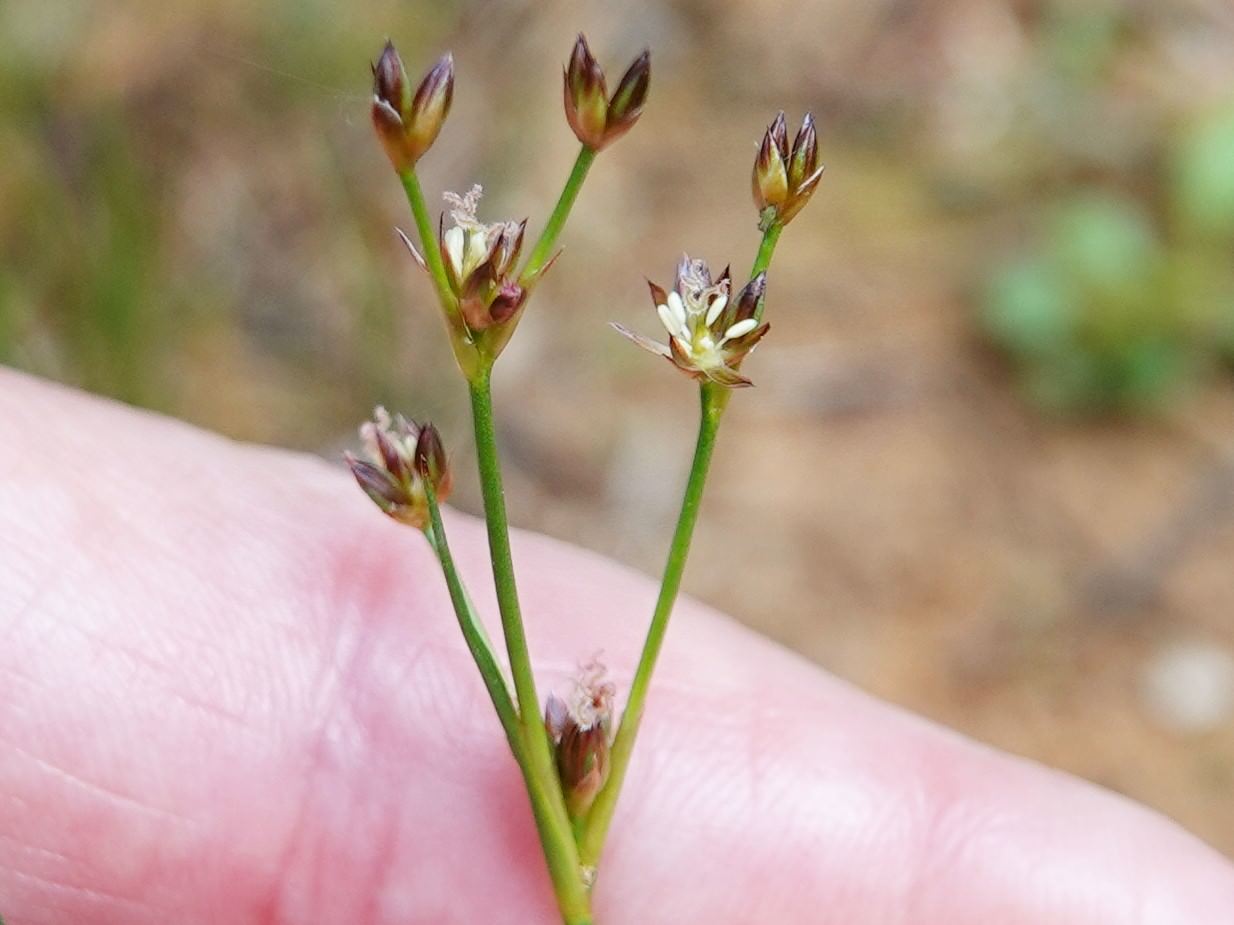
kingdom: Plantae
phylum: Tracheophyta
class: Liliopsida
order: Poales
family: Juncaceae
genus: Juncus
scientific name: Juncus articulatus
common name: Jointed rush
